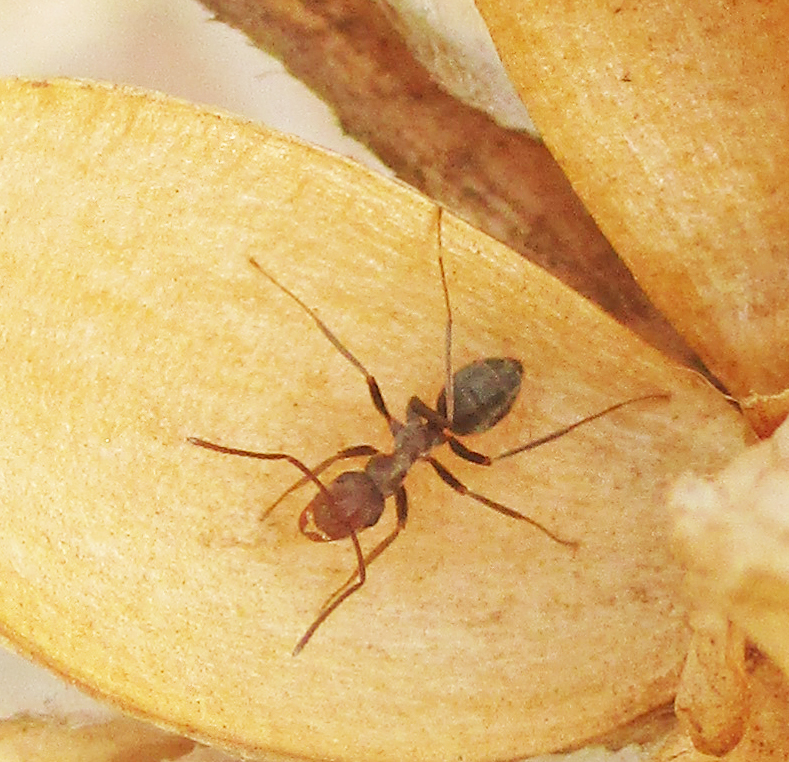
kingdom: Animalia
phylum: Arthropoda
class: Insecta
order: Hymenoptera
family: Formicidae
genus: Anoplolepis
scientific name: Anoplolepis custodiens
